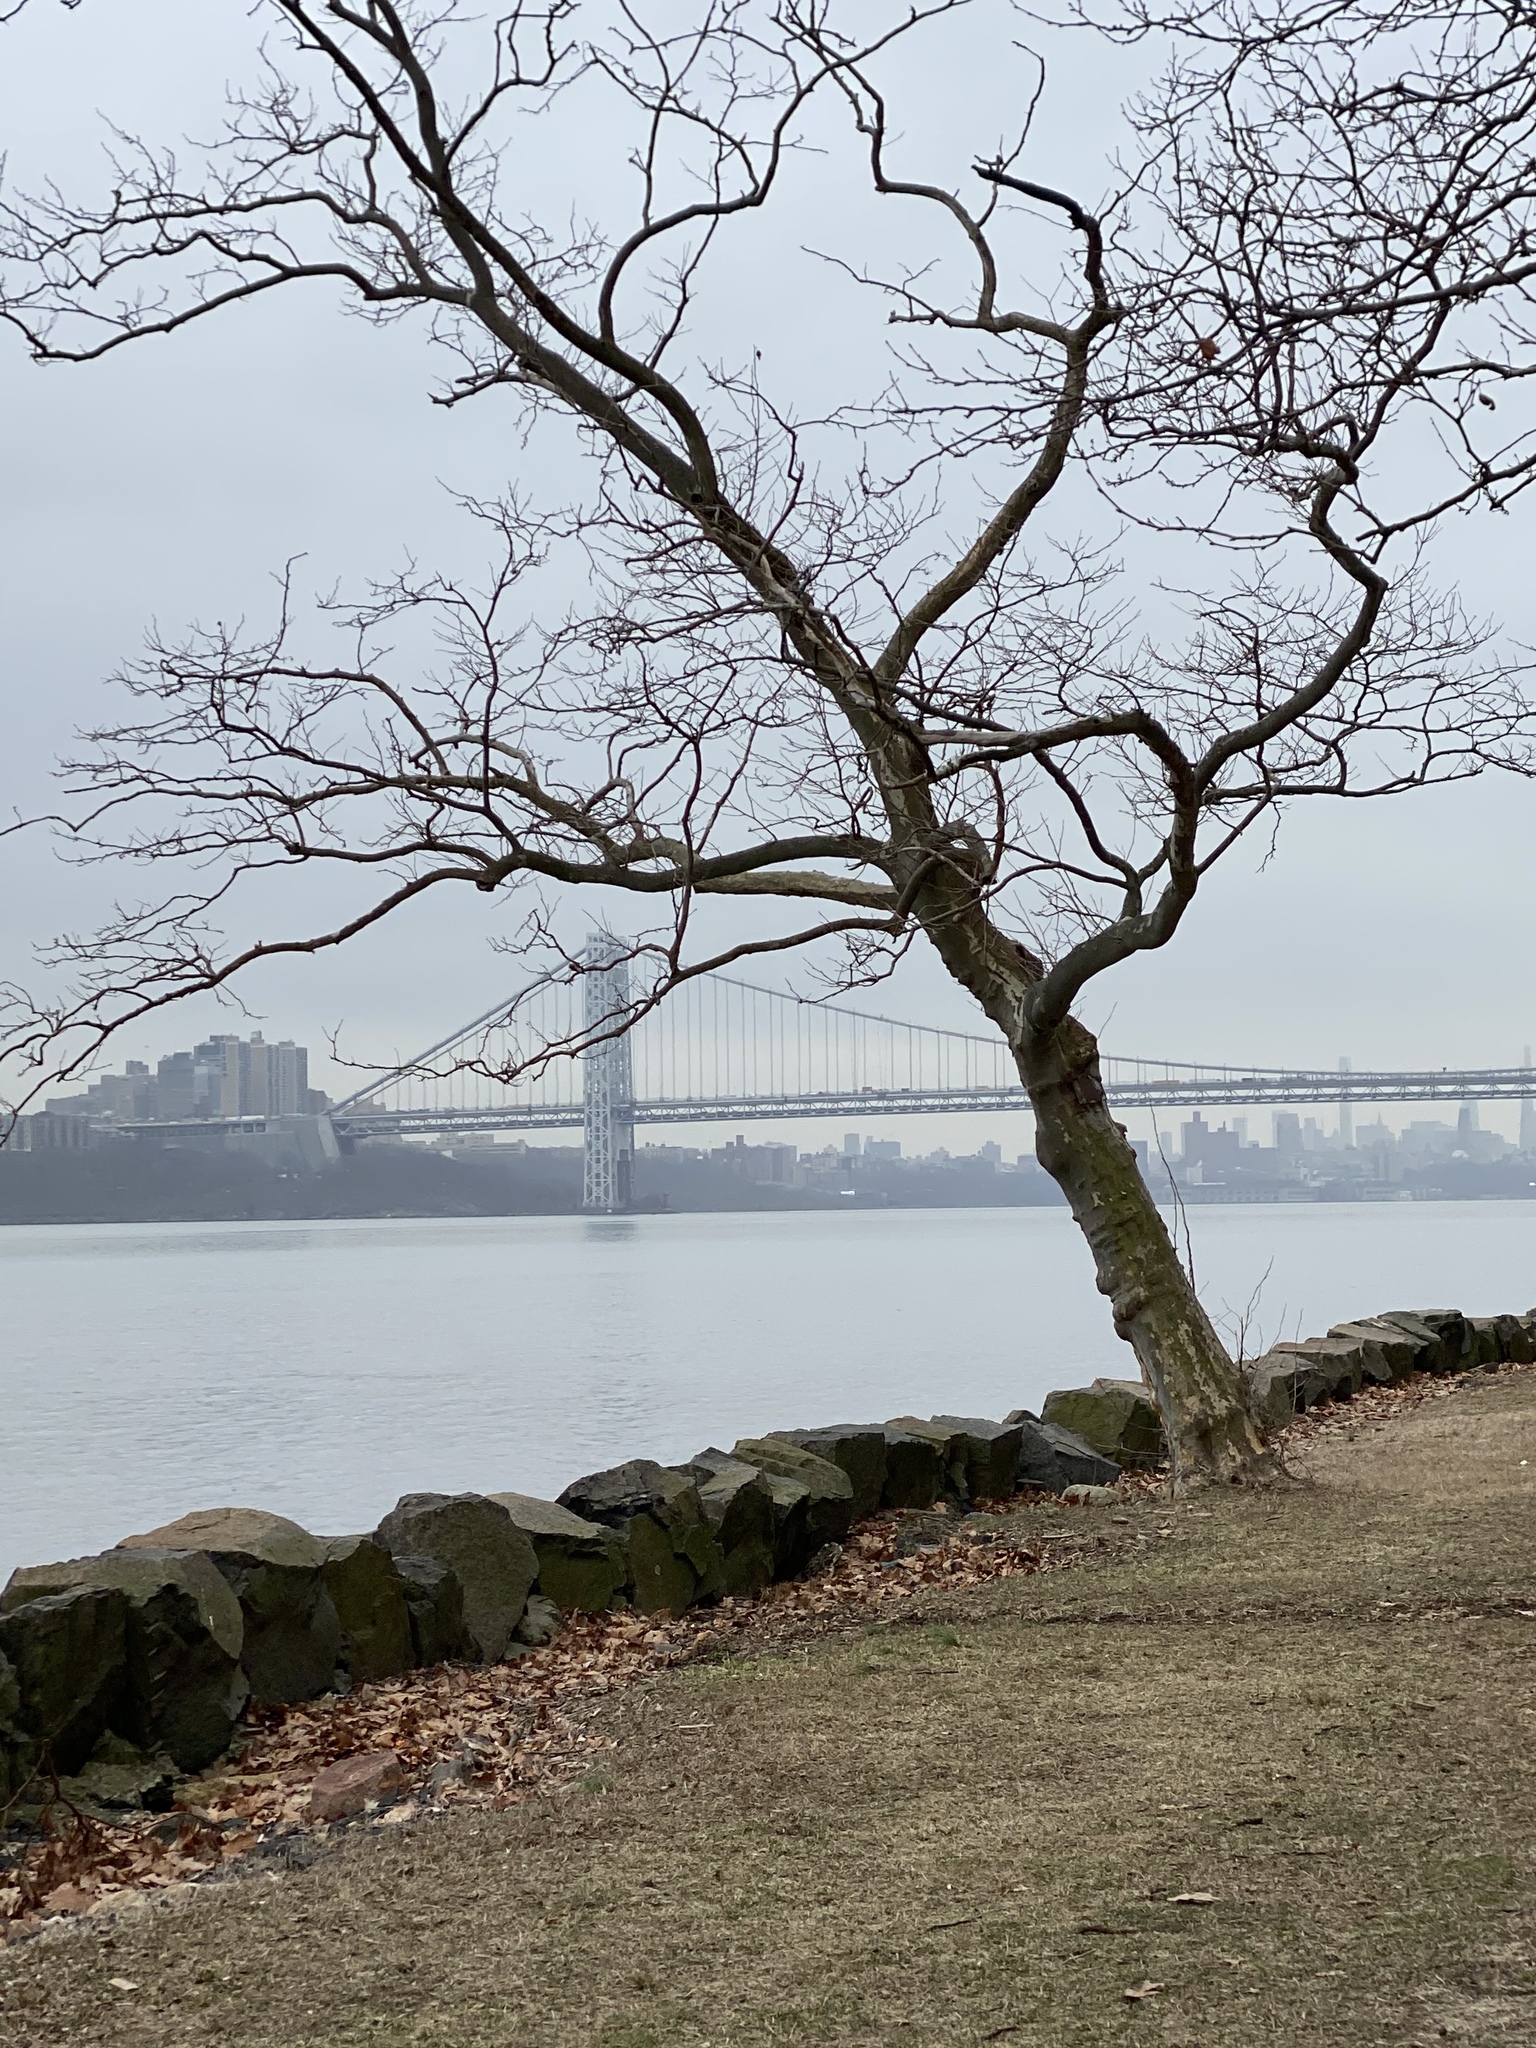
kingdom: Plantae
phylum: Tracheophyta
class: Magnoliopsida
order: Asterales
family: Asteraceae
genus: Senecio
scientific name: Senecio vulgaris
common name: Old-man-in-the-spring
